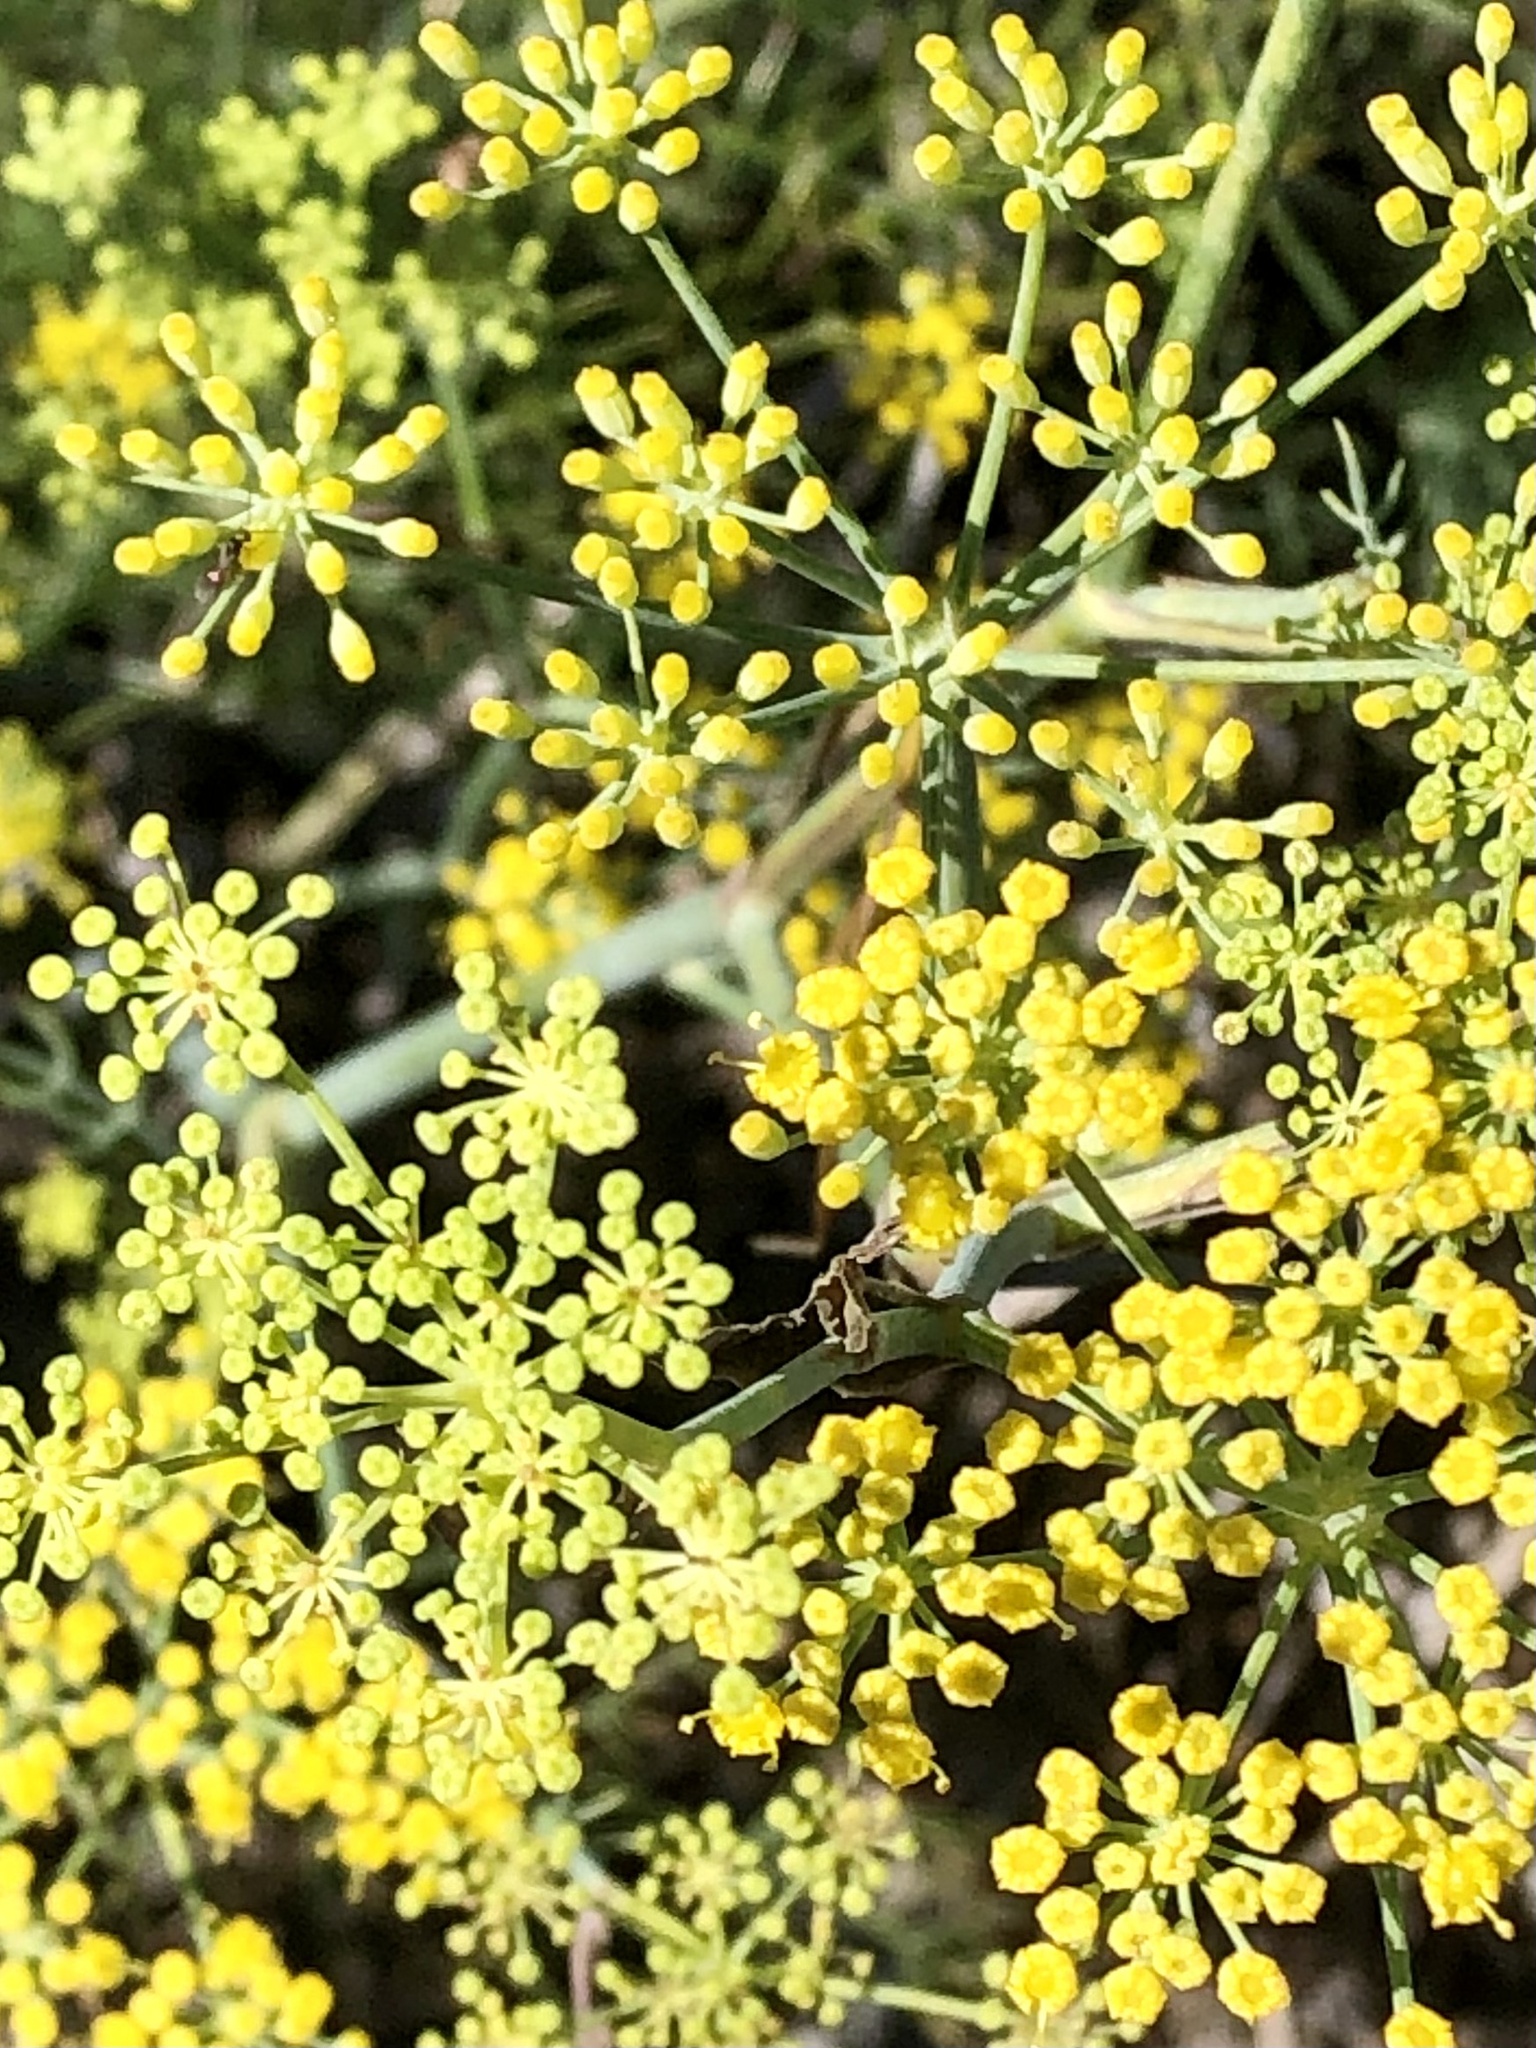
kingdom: Plantae
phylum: Tracheophyta
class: Magnoliopsida
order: Apiales
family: Apiaceae
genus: Foeniculum
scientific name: Foeniculum vulgare
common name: Fennel
